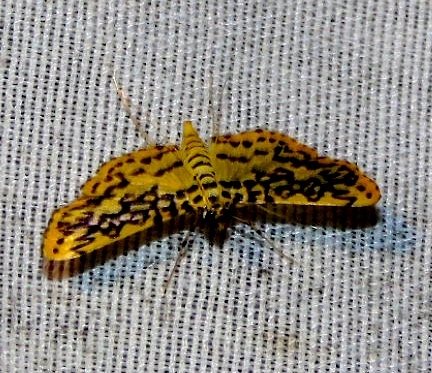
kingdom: Animalia
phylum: Arthropoda
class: Insecta
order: Lepidoptera
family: Crambidae
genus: Asturodes
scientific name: Asturodes fimbriauralis
